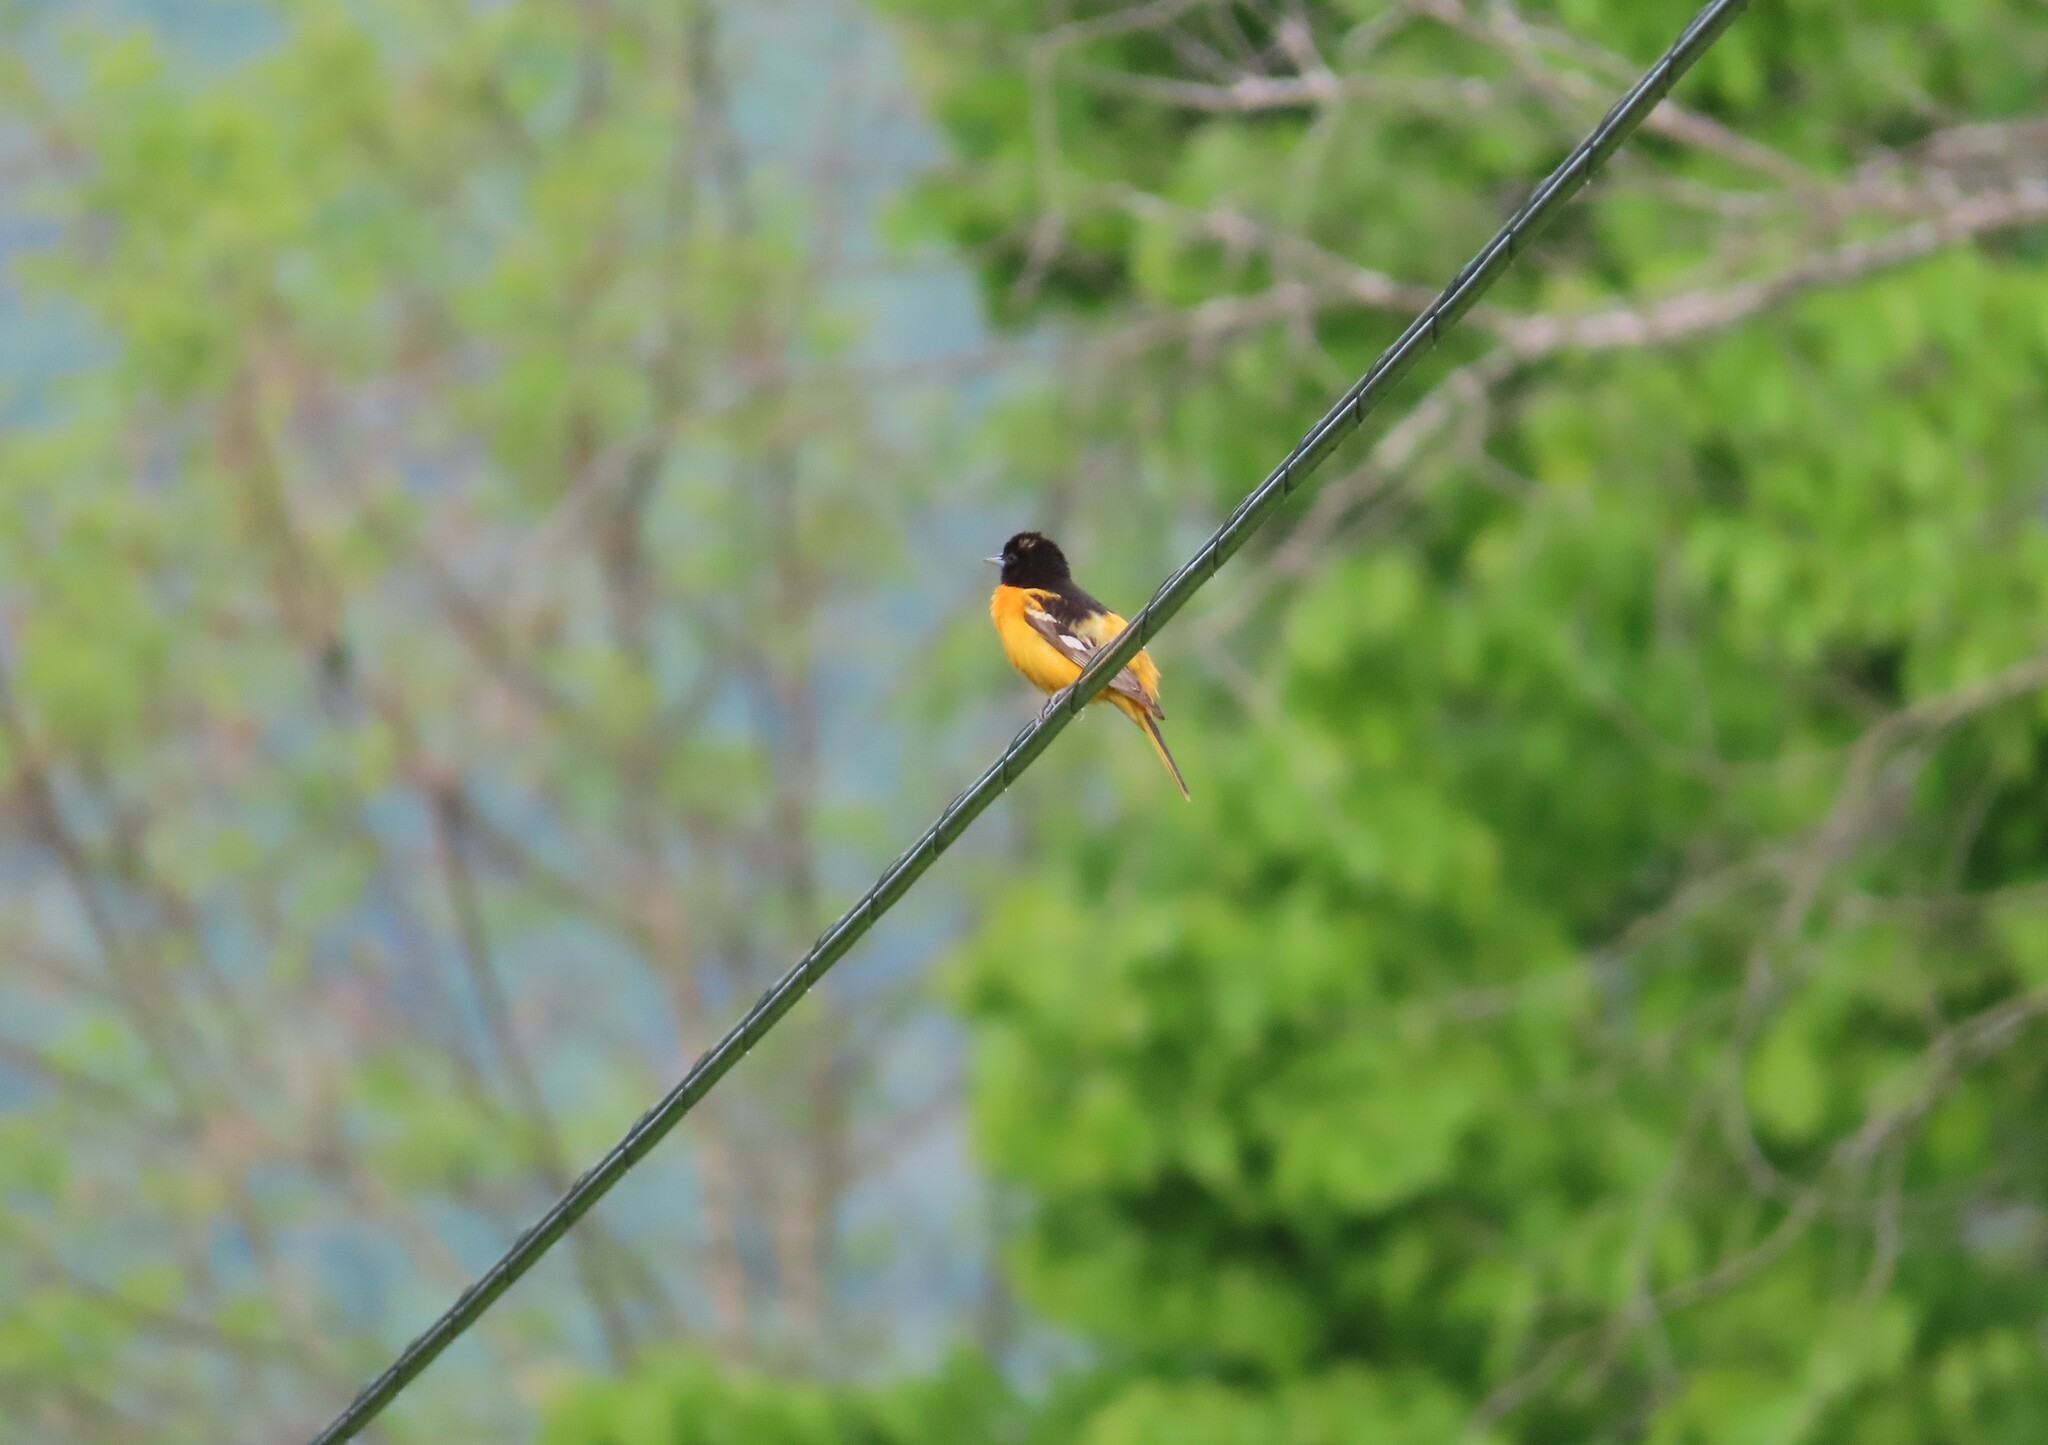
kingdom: Animalia
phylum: Chordata
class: Aves
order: Passeriformes
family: Icteridae
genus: Icterus
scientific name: Icterus galbula
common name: Baltimore oriole
